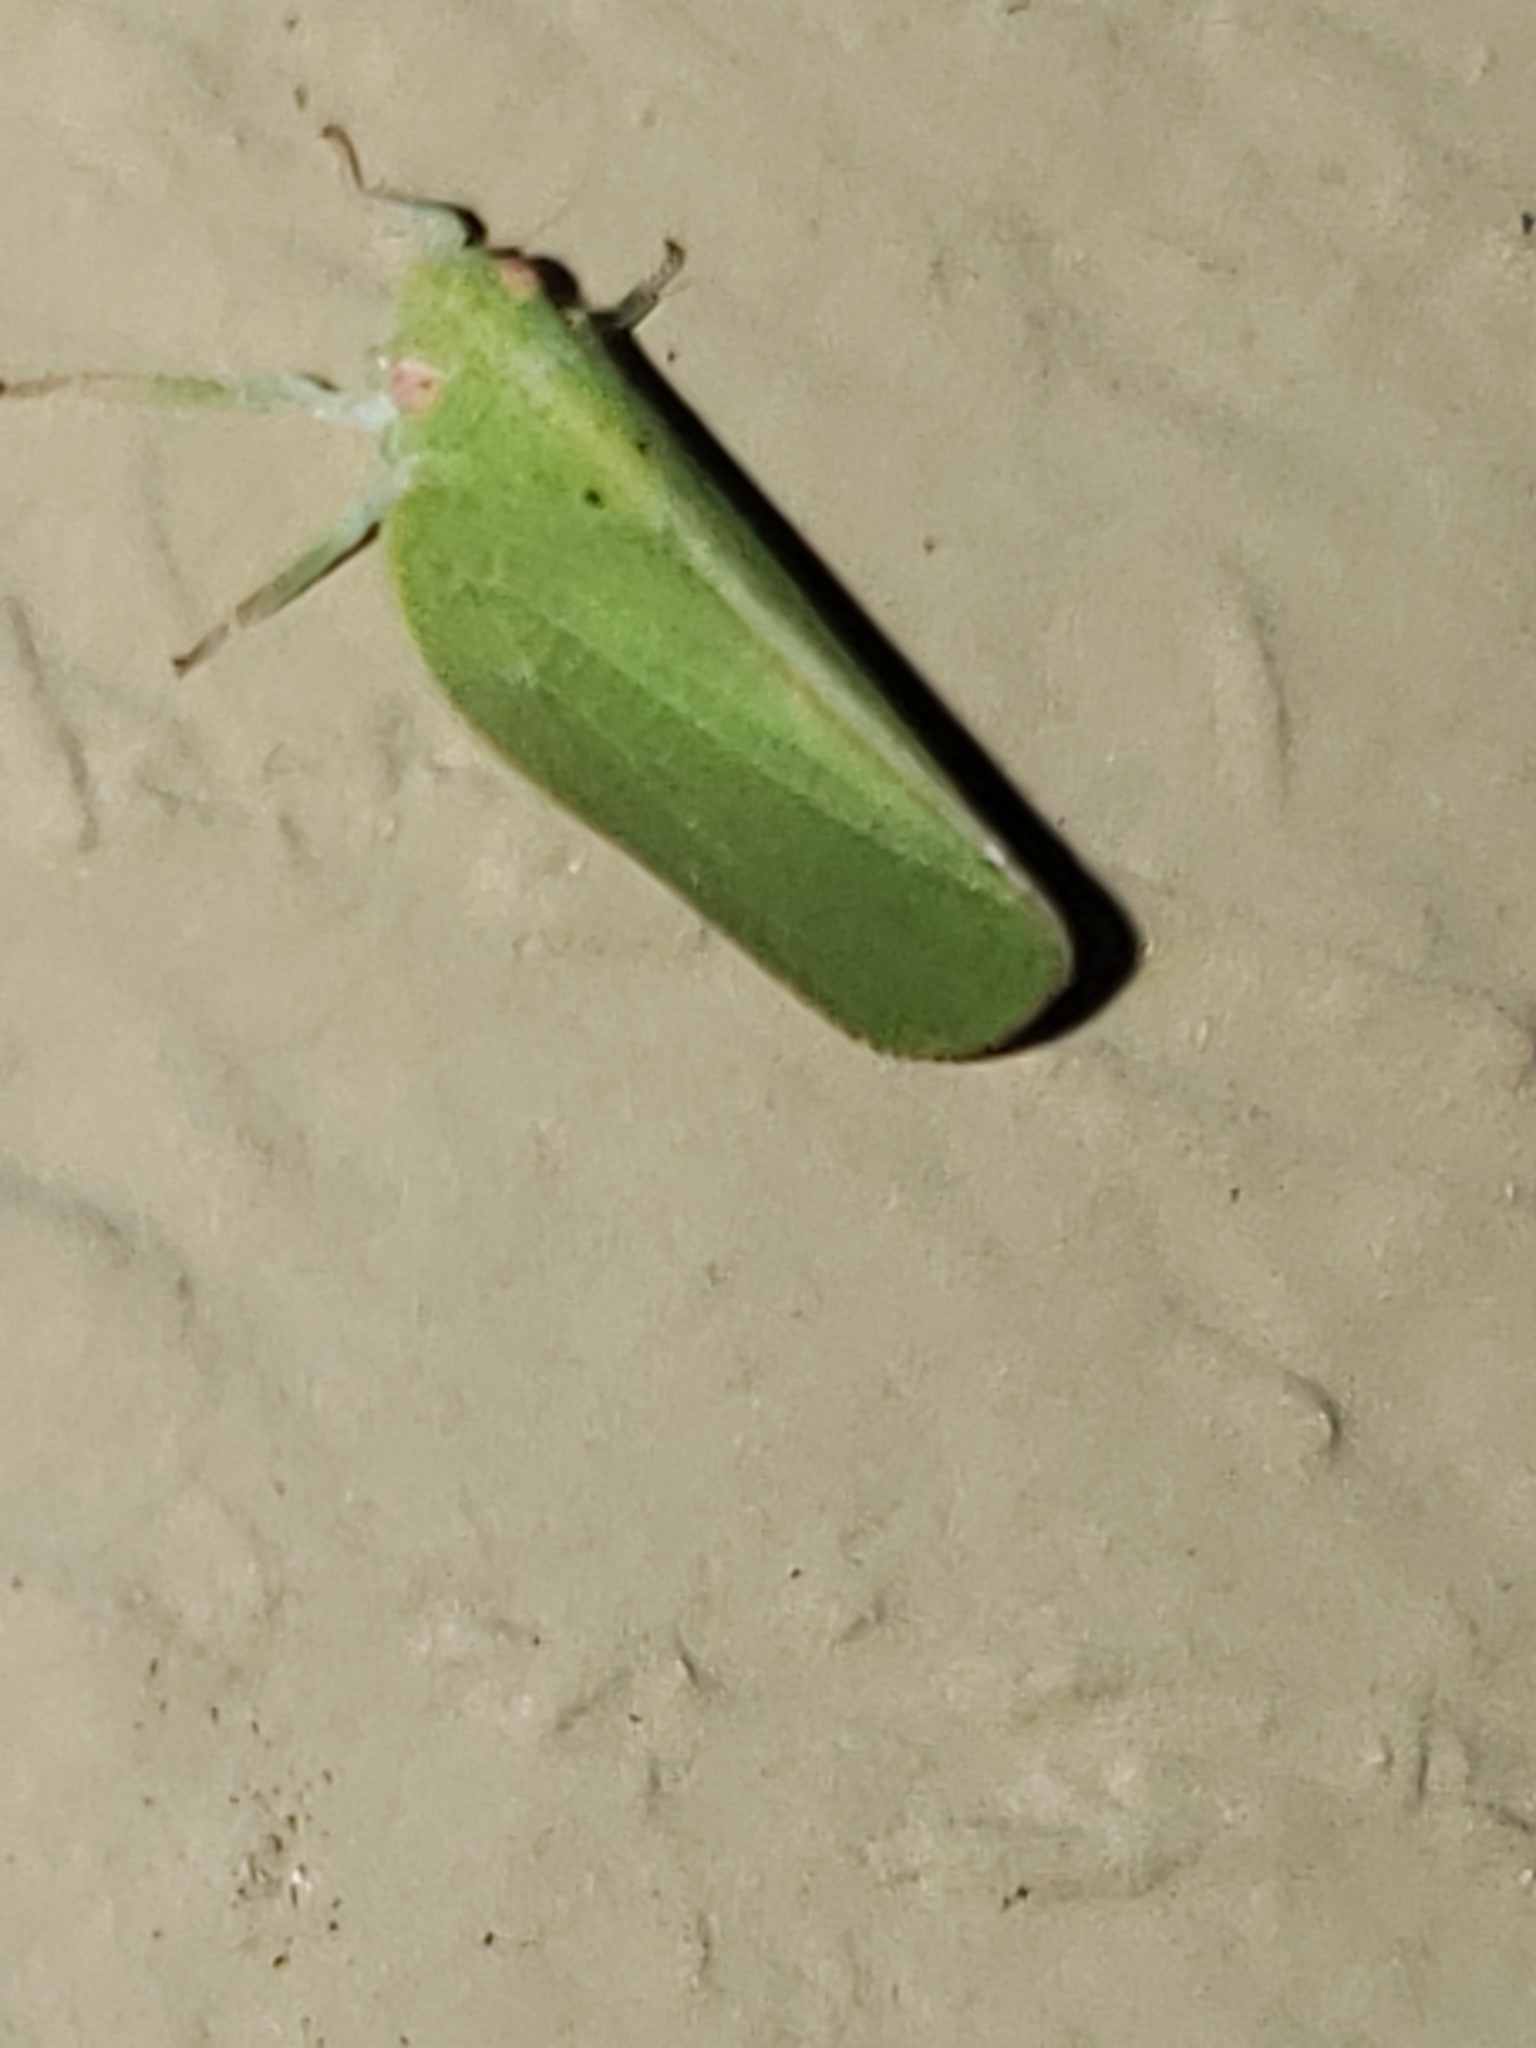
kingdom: Animalia
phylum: Arthropoda
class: Insecta
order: Hemiptera
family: Acanaloniidae
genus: Acanalonia
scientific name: Acanalonia conica
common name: Green cone-headed planthopper
